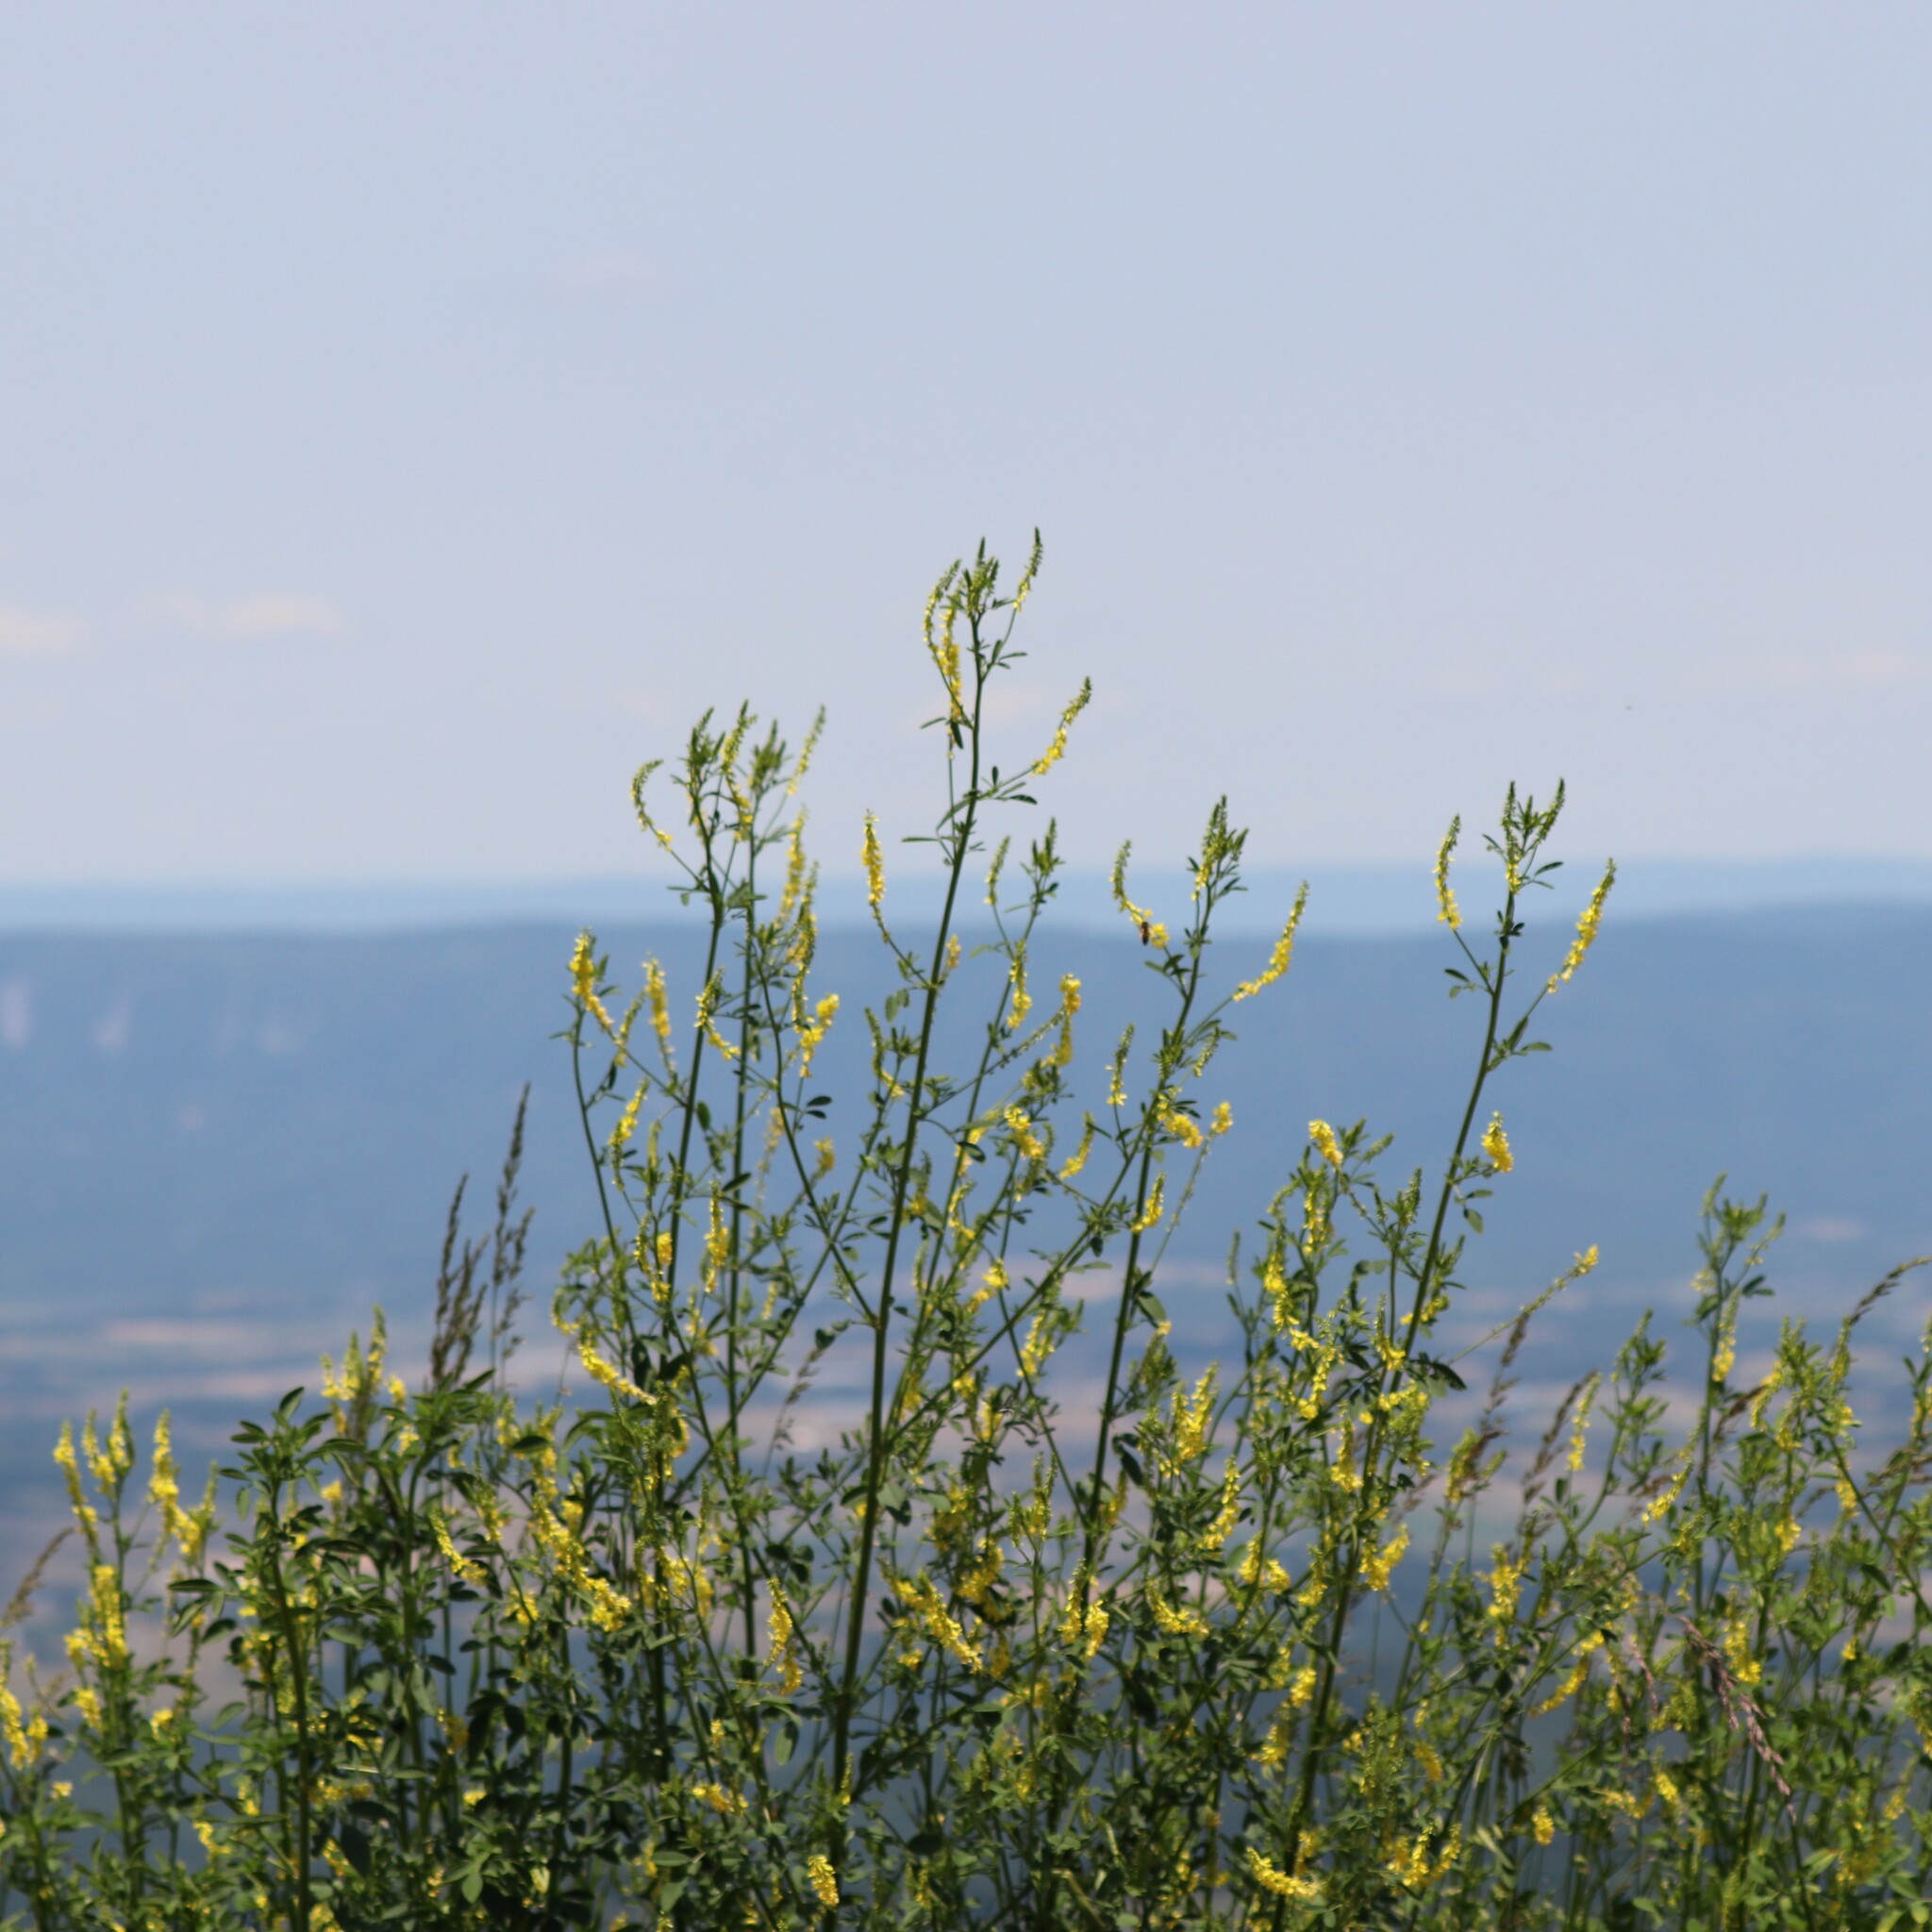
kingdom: Plantae
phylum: Tracheophyta
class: Magnoliopsida
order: Fabales
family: Fabaceae
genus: Melilotus
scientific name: Melilotus officinalis
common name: Sweetclover
